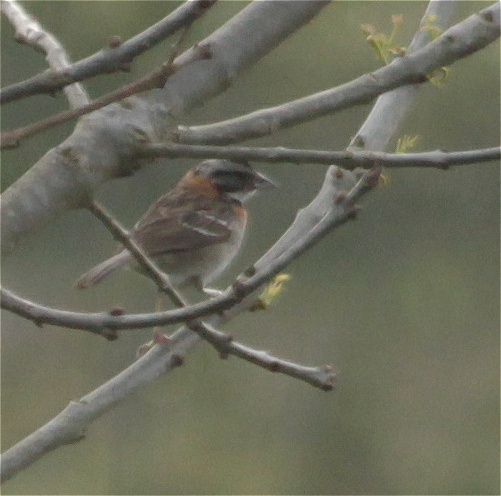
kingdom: Animalia
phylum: Chordata
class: Aves
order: Passeriformes
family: Passerellidae
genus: Zonotrichia
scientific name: Zonotrichia capensis
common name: Rufous-collared sparrow
